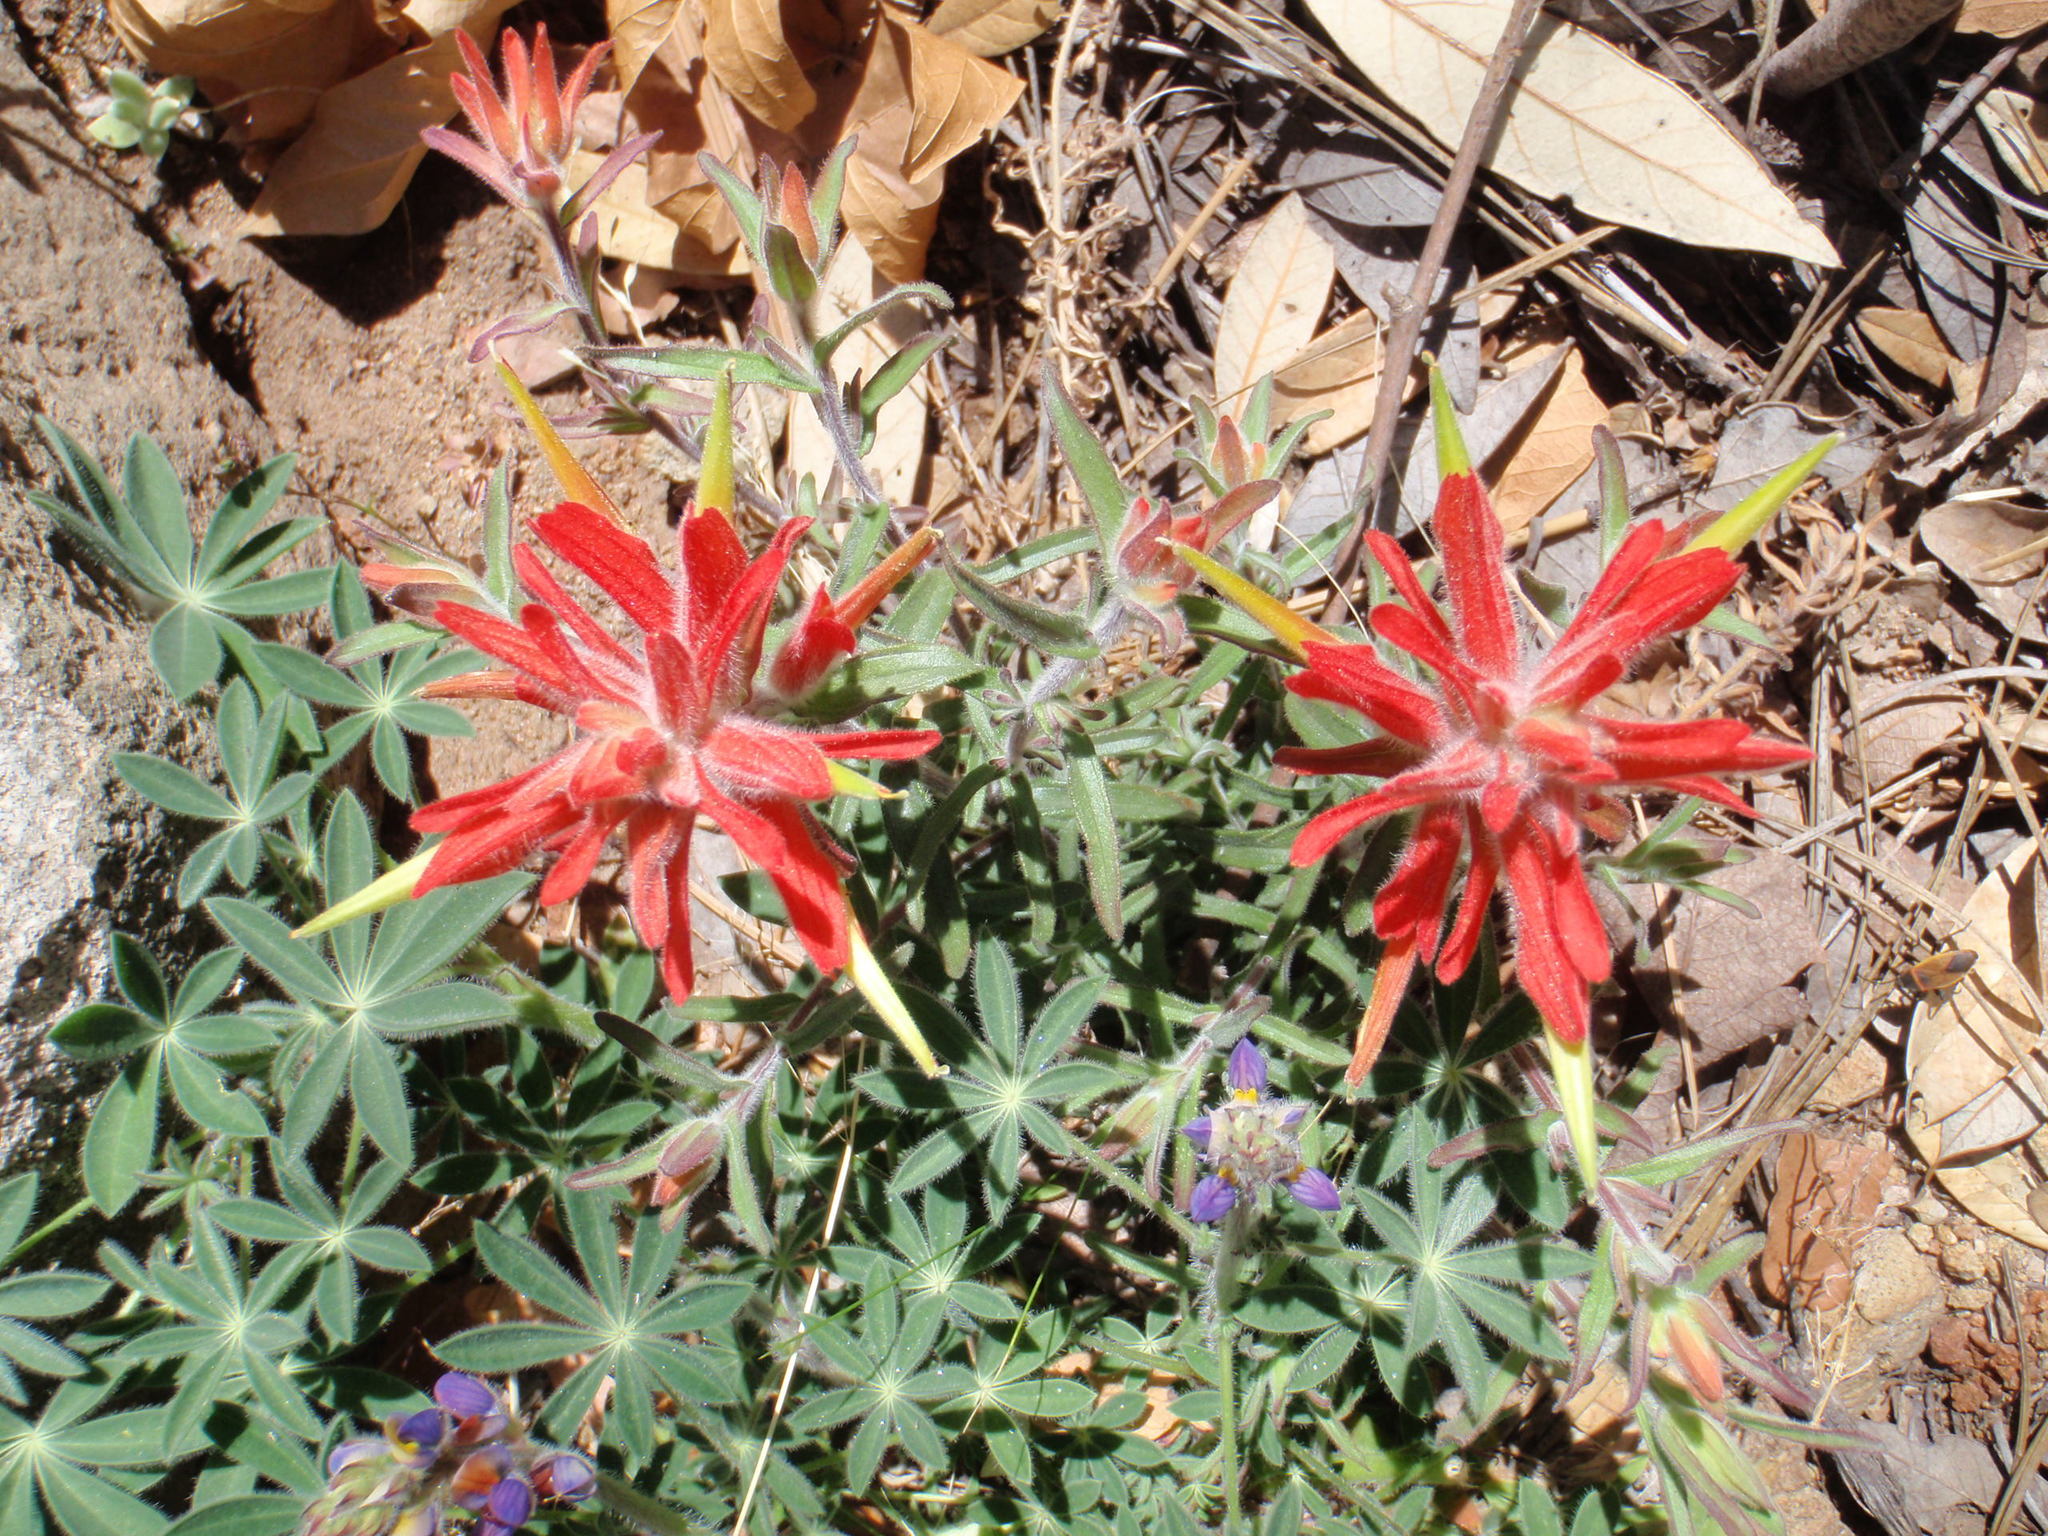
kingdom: Plantae
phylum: Tracheophyta
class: Magnoliopsida
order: Lamiales
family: Orobanchaceae
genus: Castilleja
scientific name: Castilleja tenuiflora
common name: Santa catalina indian paintbrush
